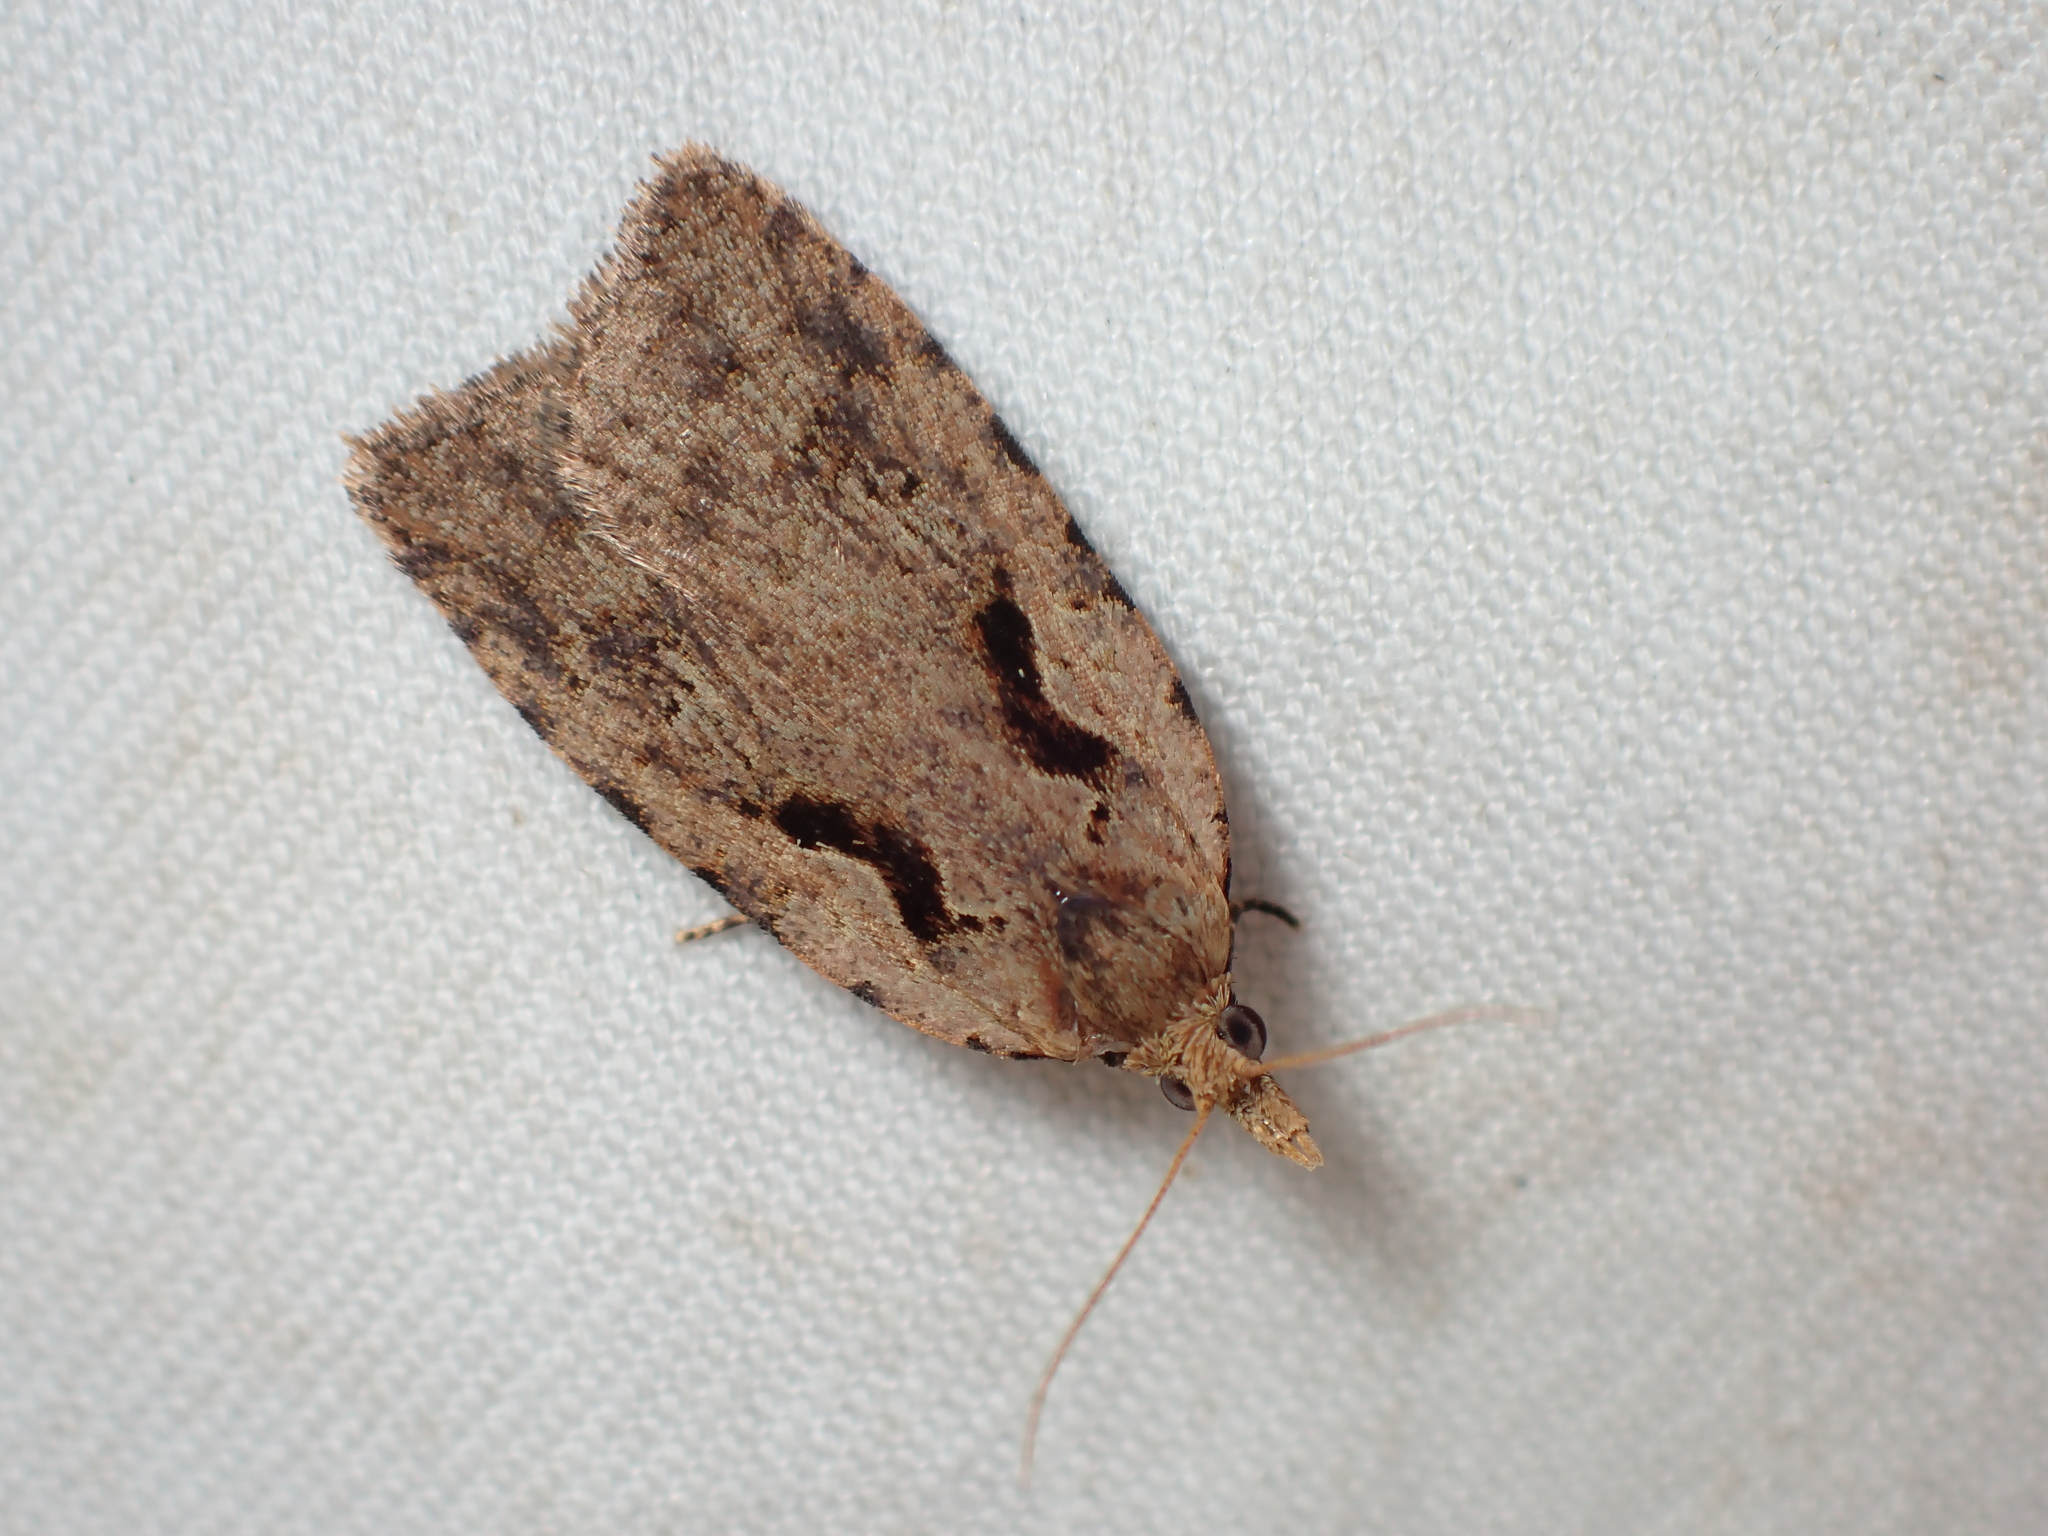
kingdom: Animalia
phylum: Arthropoda
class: Insecta
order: Lepidoptera
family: Tortricidae
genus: Cnephasia
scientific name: Cnephasia jactatana
